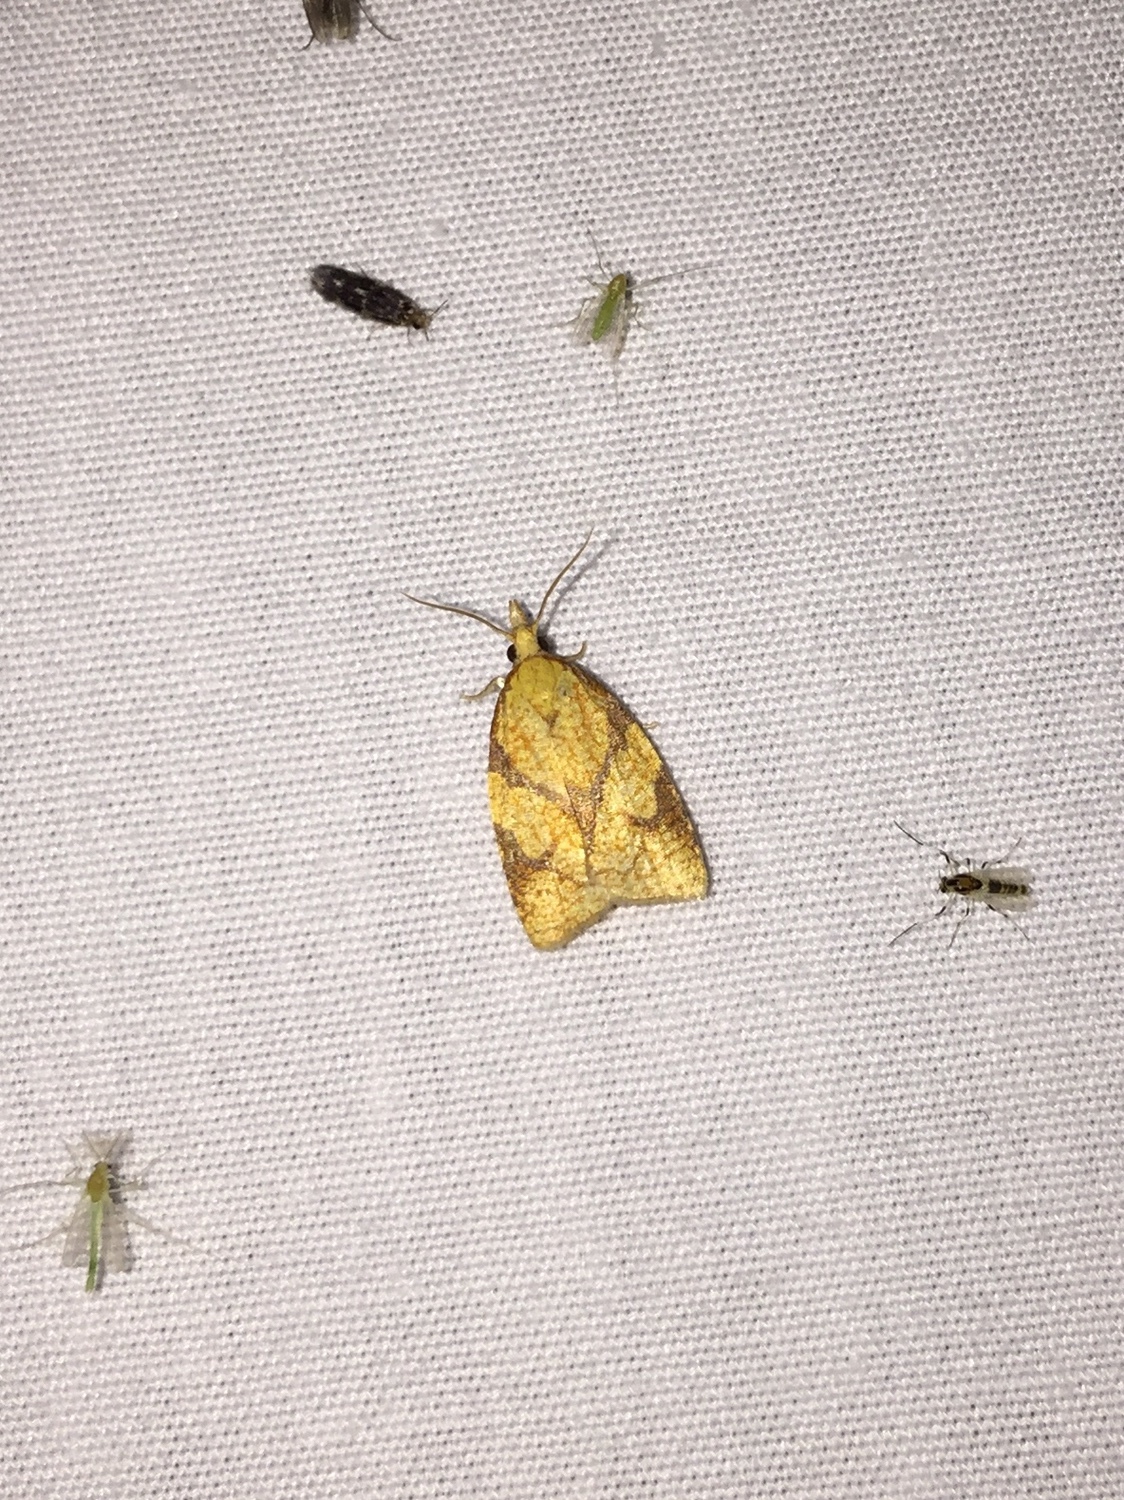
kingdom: Animalia
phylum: Arthropoda
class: Insecta
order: Lepidoptera
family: Tortricidae
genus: Cenopis
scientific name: Cenopis reticulatana
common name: Reticulated fruitworm moth
